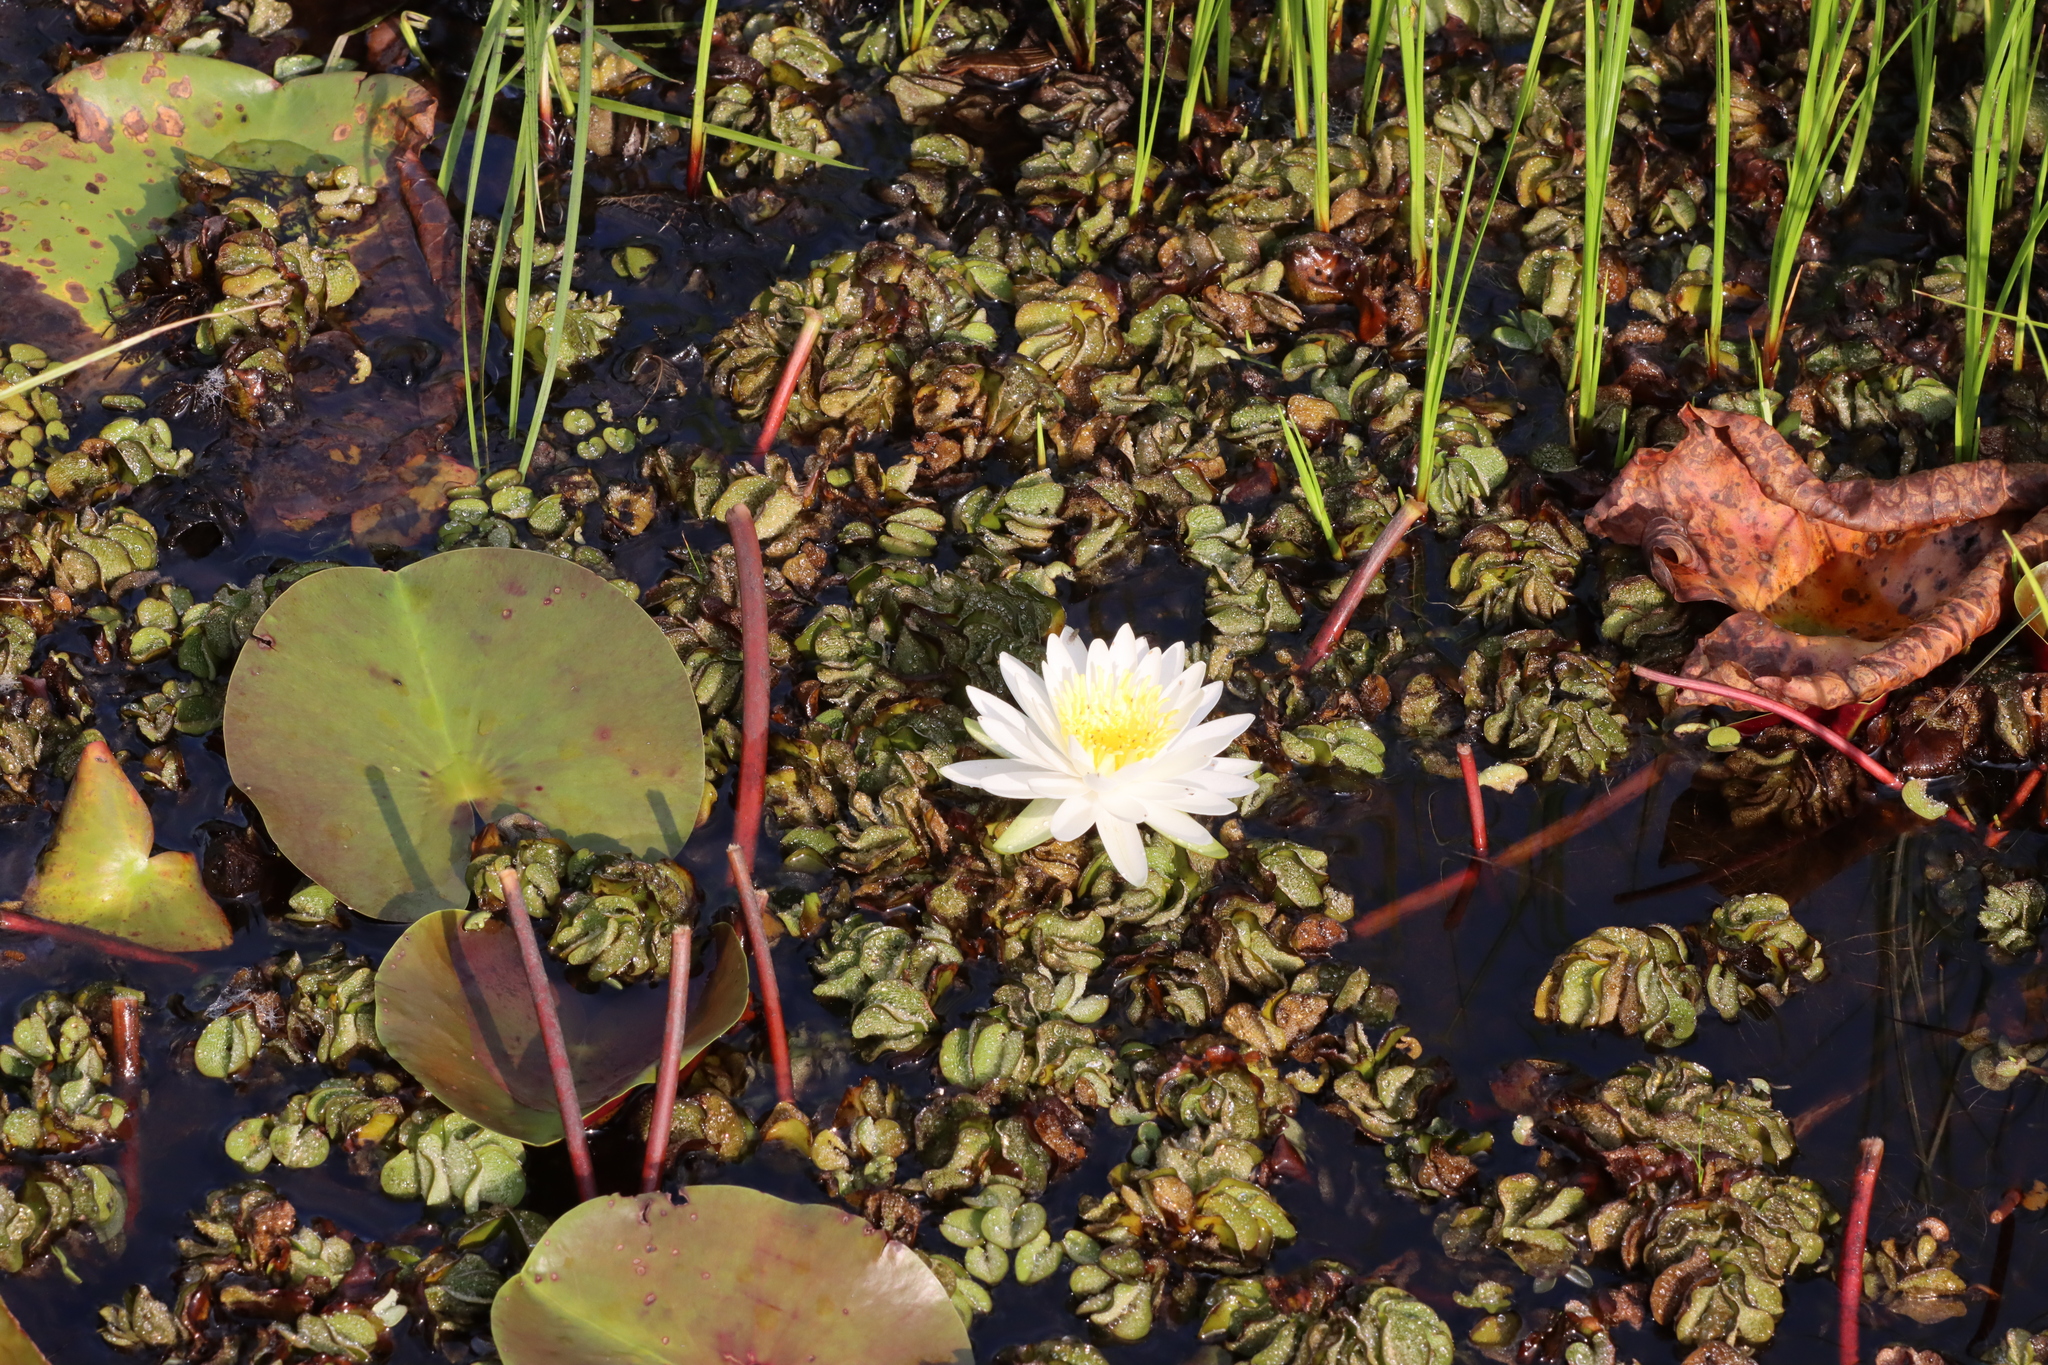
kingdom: Plantae
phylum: Tracheophyta
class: Magnoliopsida
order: Nymphaeales
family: Nymphaeaceae
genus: Nymphaea
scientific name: Nymphaea odorata
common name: Fragrant water-lily
